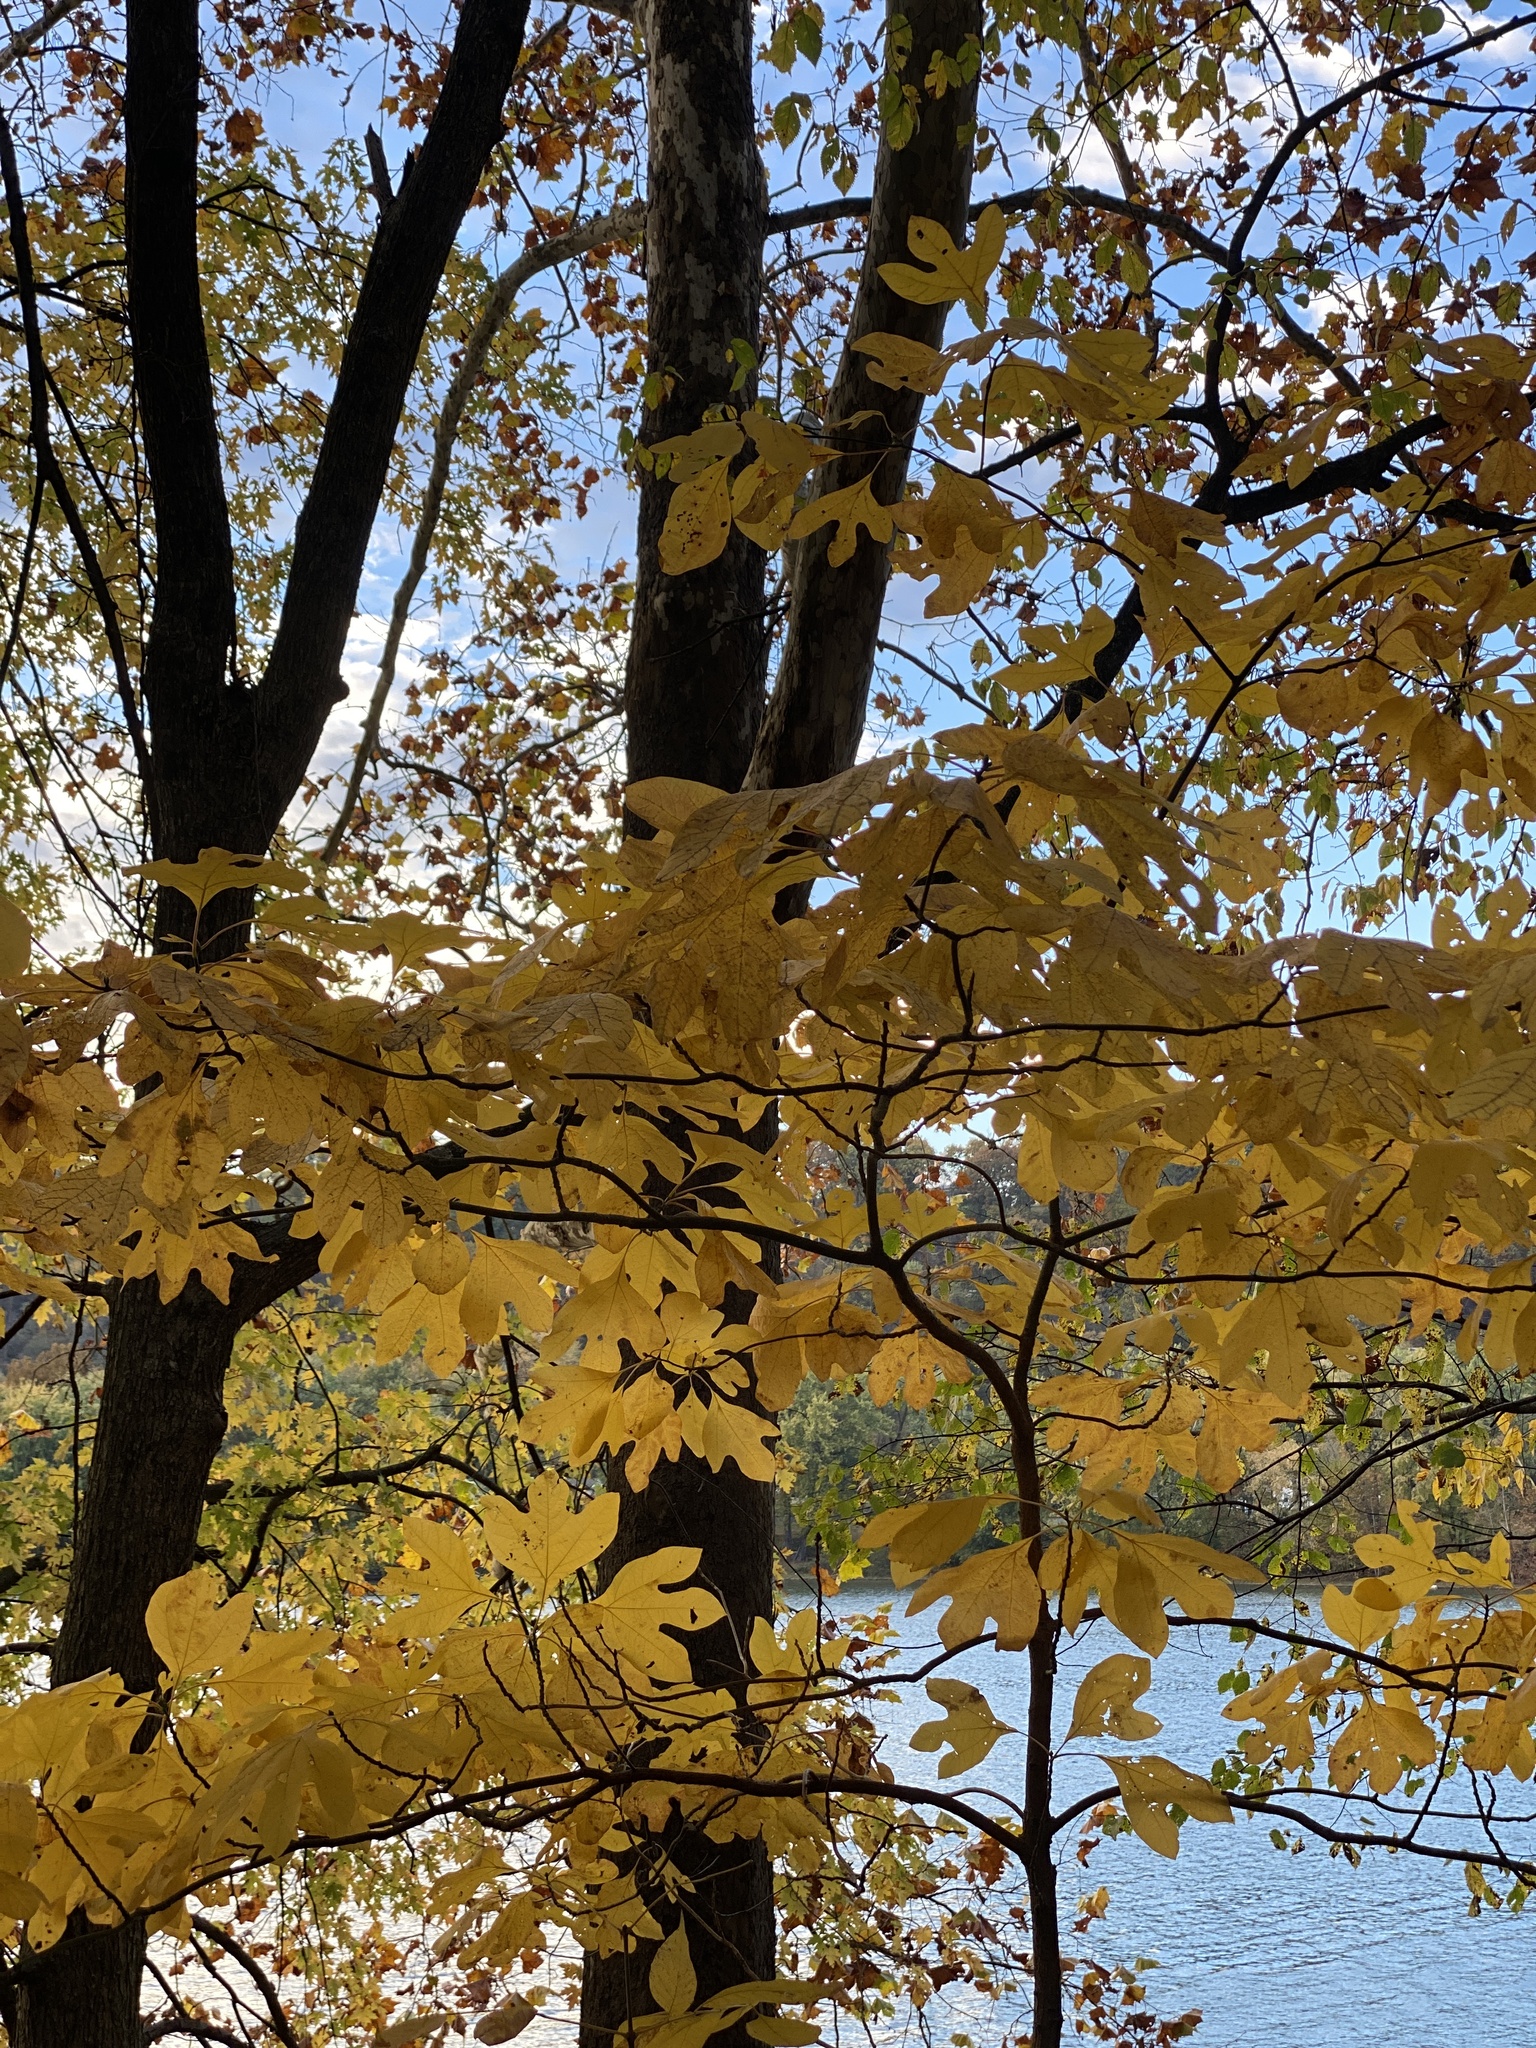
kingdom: Plantae
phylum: Tracheophyta
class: Magnoliopsida
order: Laurales
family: Lauraceae
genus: Sassafras
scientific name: Sassafras albidum
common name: Sassafras
